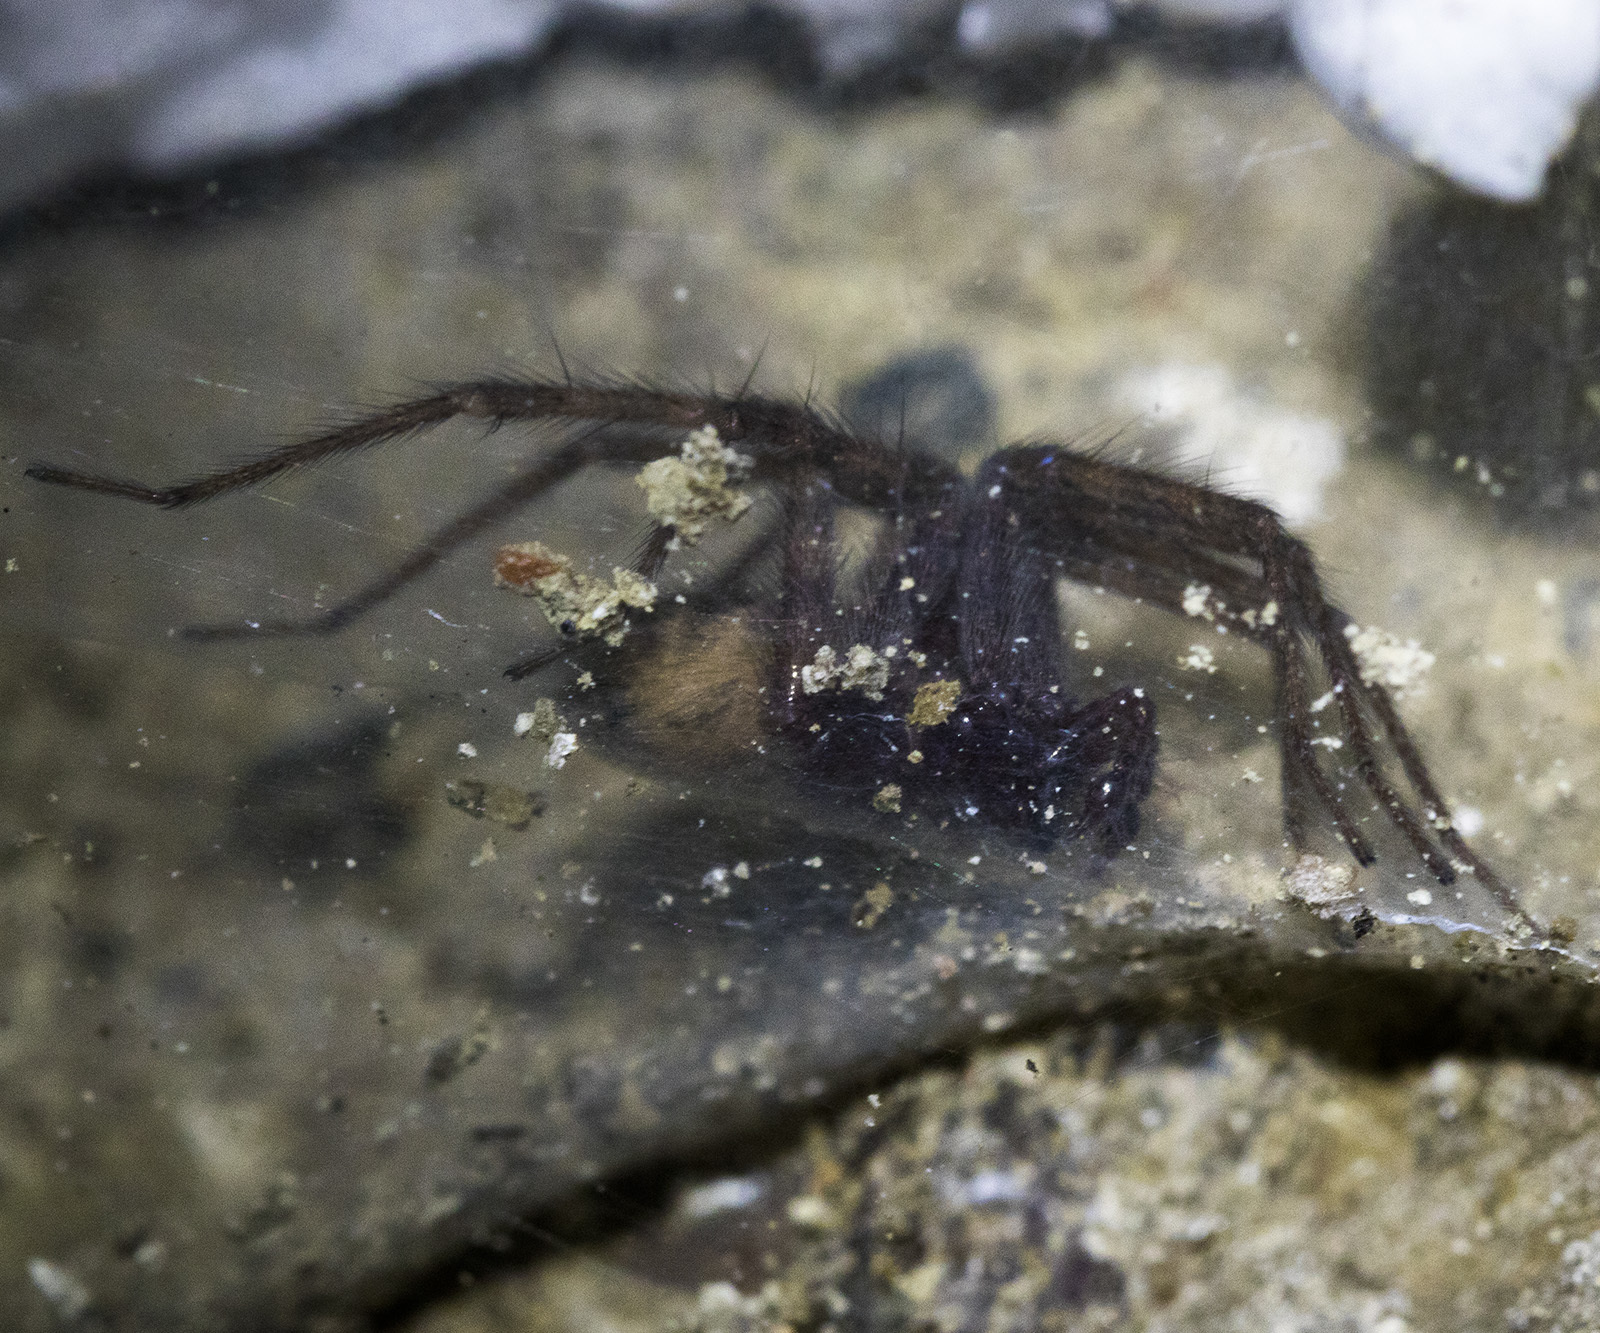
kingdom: Animalia
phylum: Arthropoda
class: Arachnida
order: Araneae
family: Agelenidae
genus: Tegenaria
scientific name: Tegenaria domestica
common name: Barn funnel weaver
